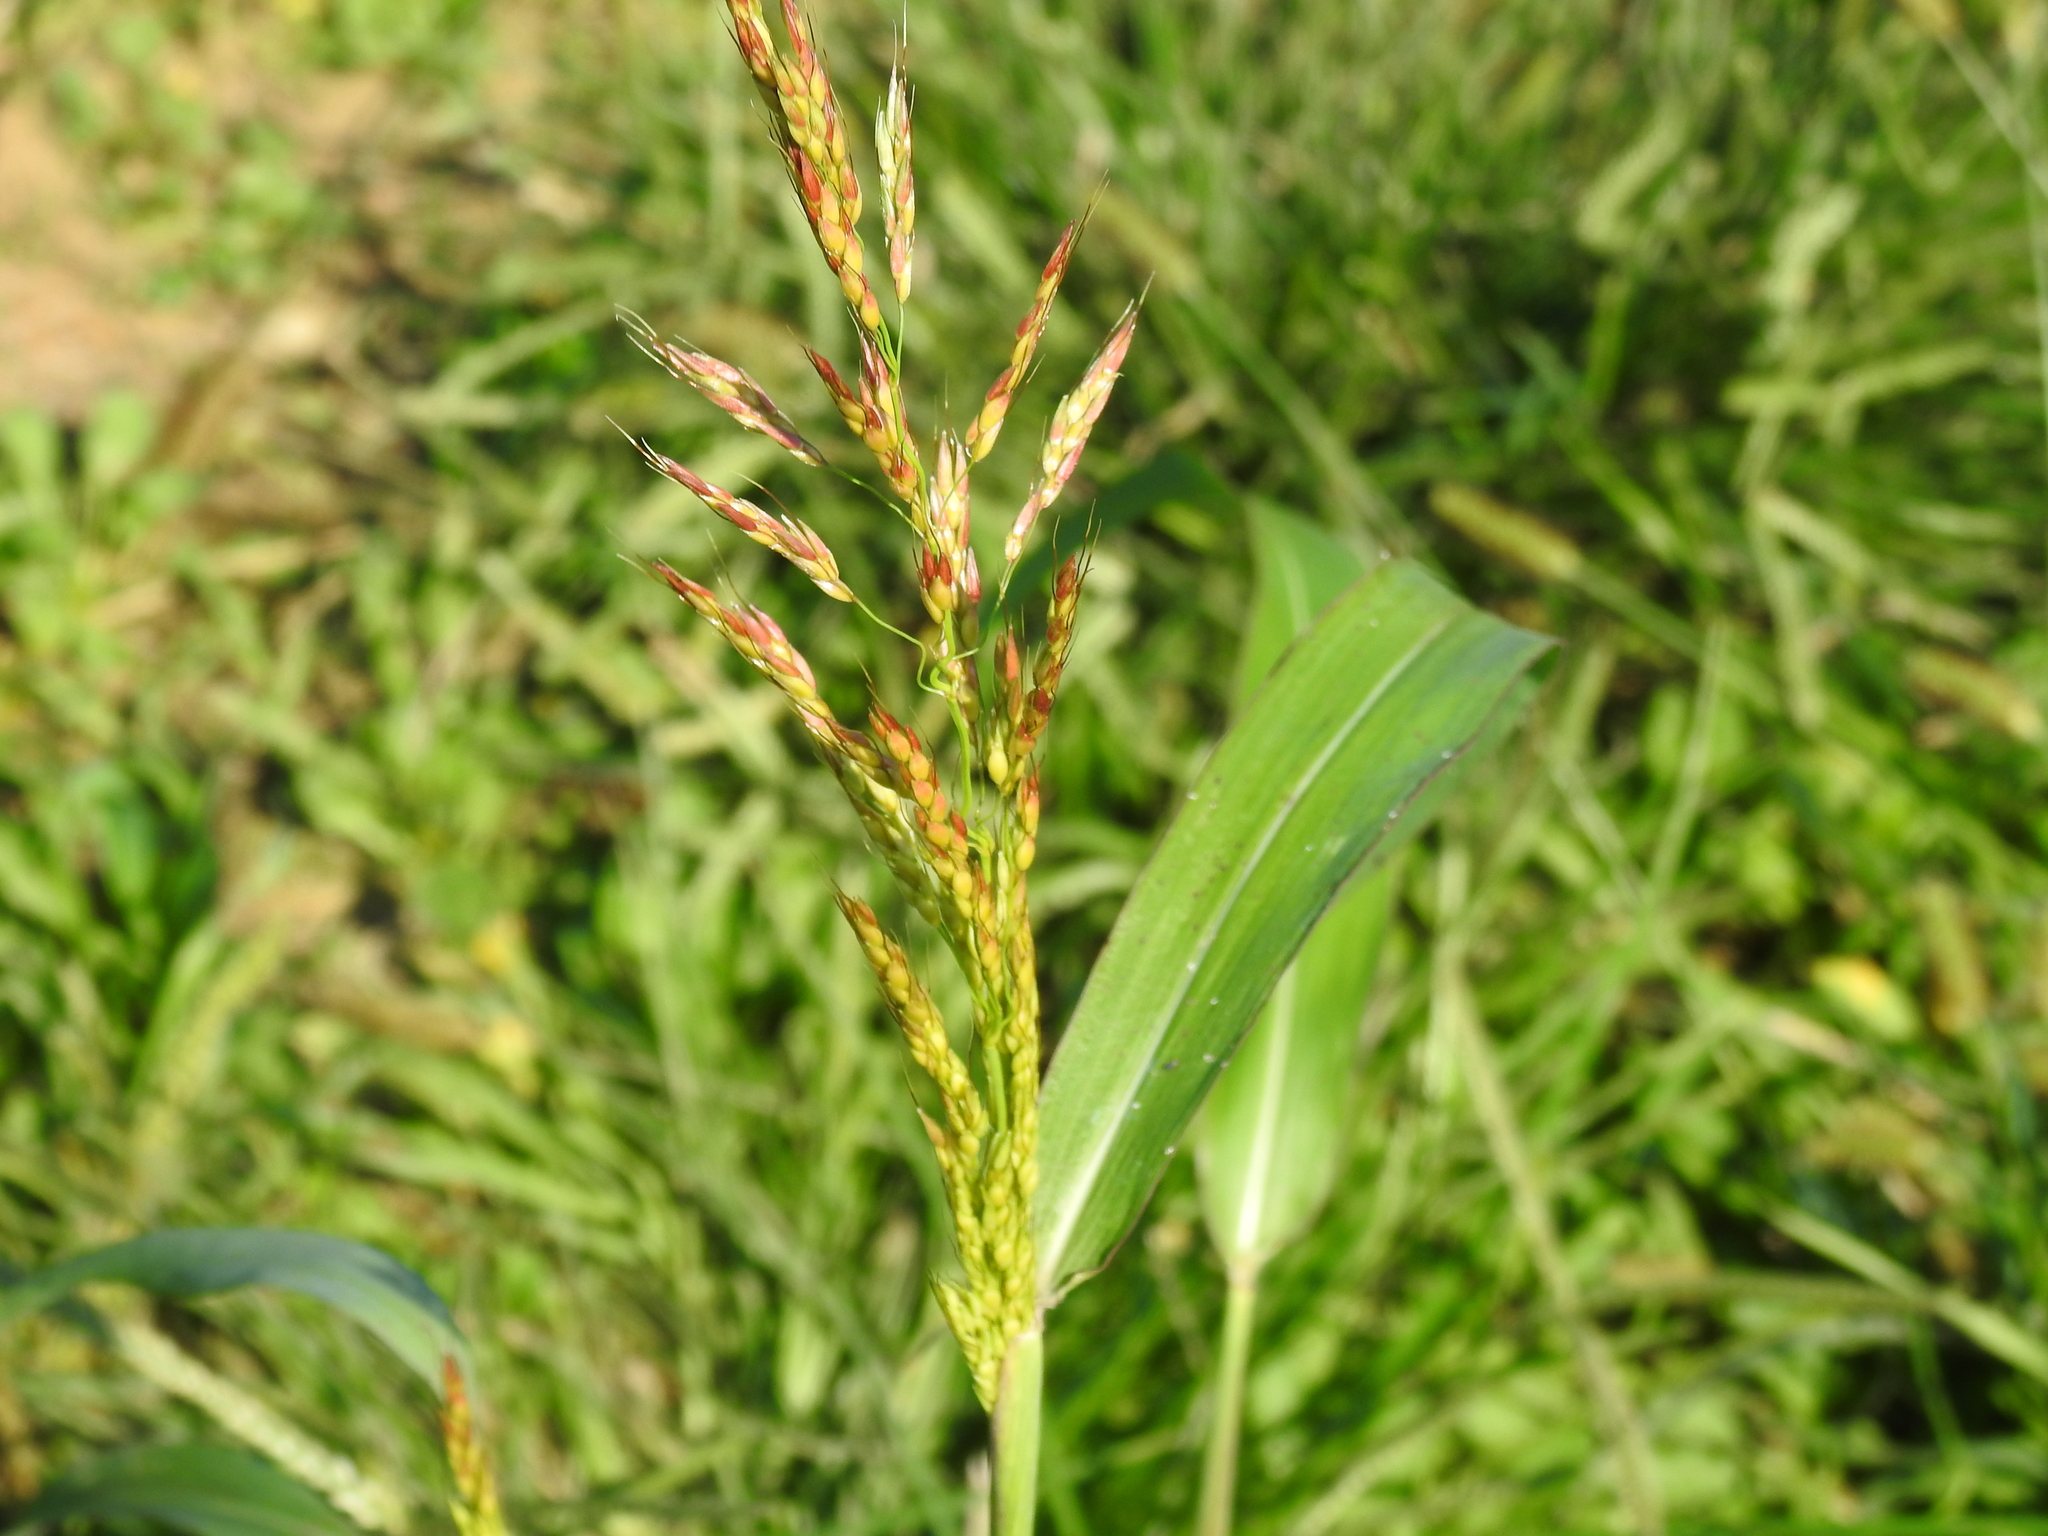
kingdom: Plantae
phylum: Tracheophyta
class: Liliopsida
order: Poales
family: Poaceae
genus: Sorghum
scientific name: Sorghum halepense
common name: Johnson-grass
